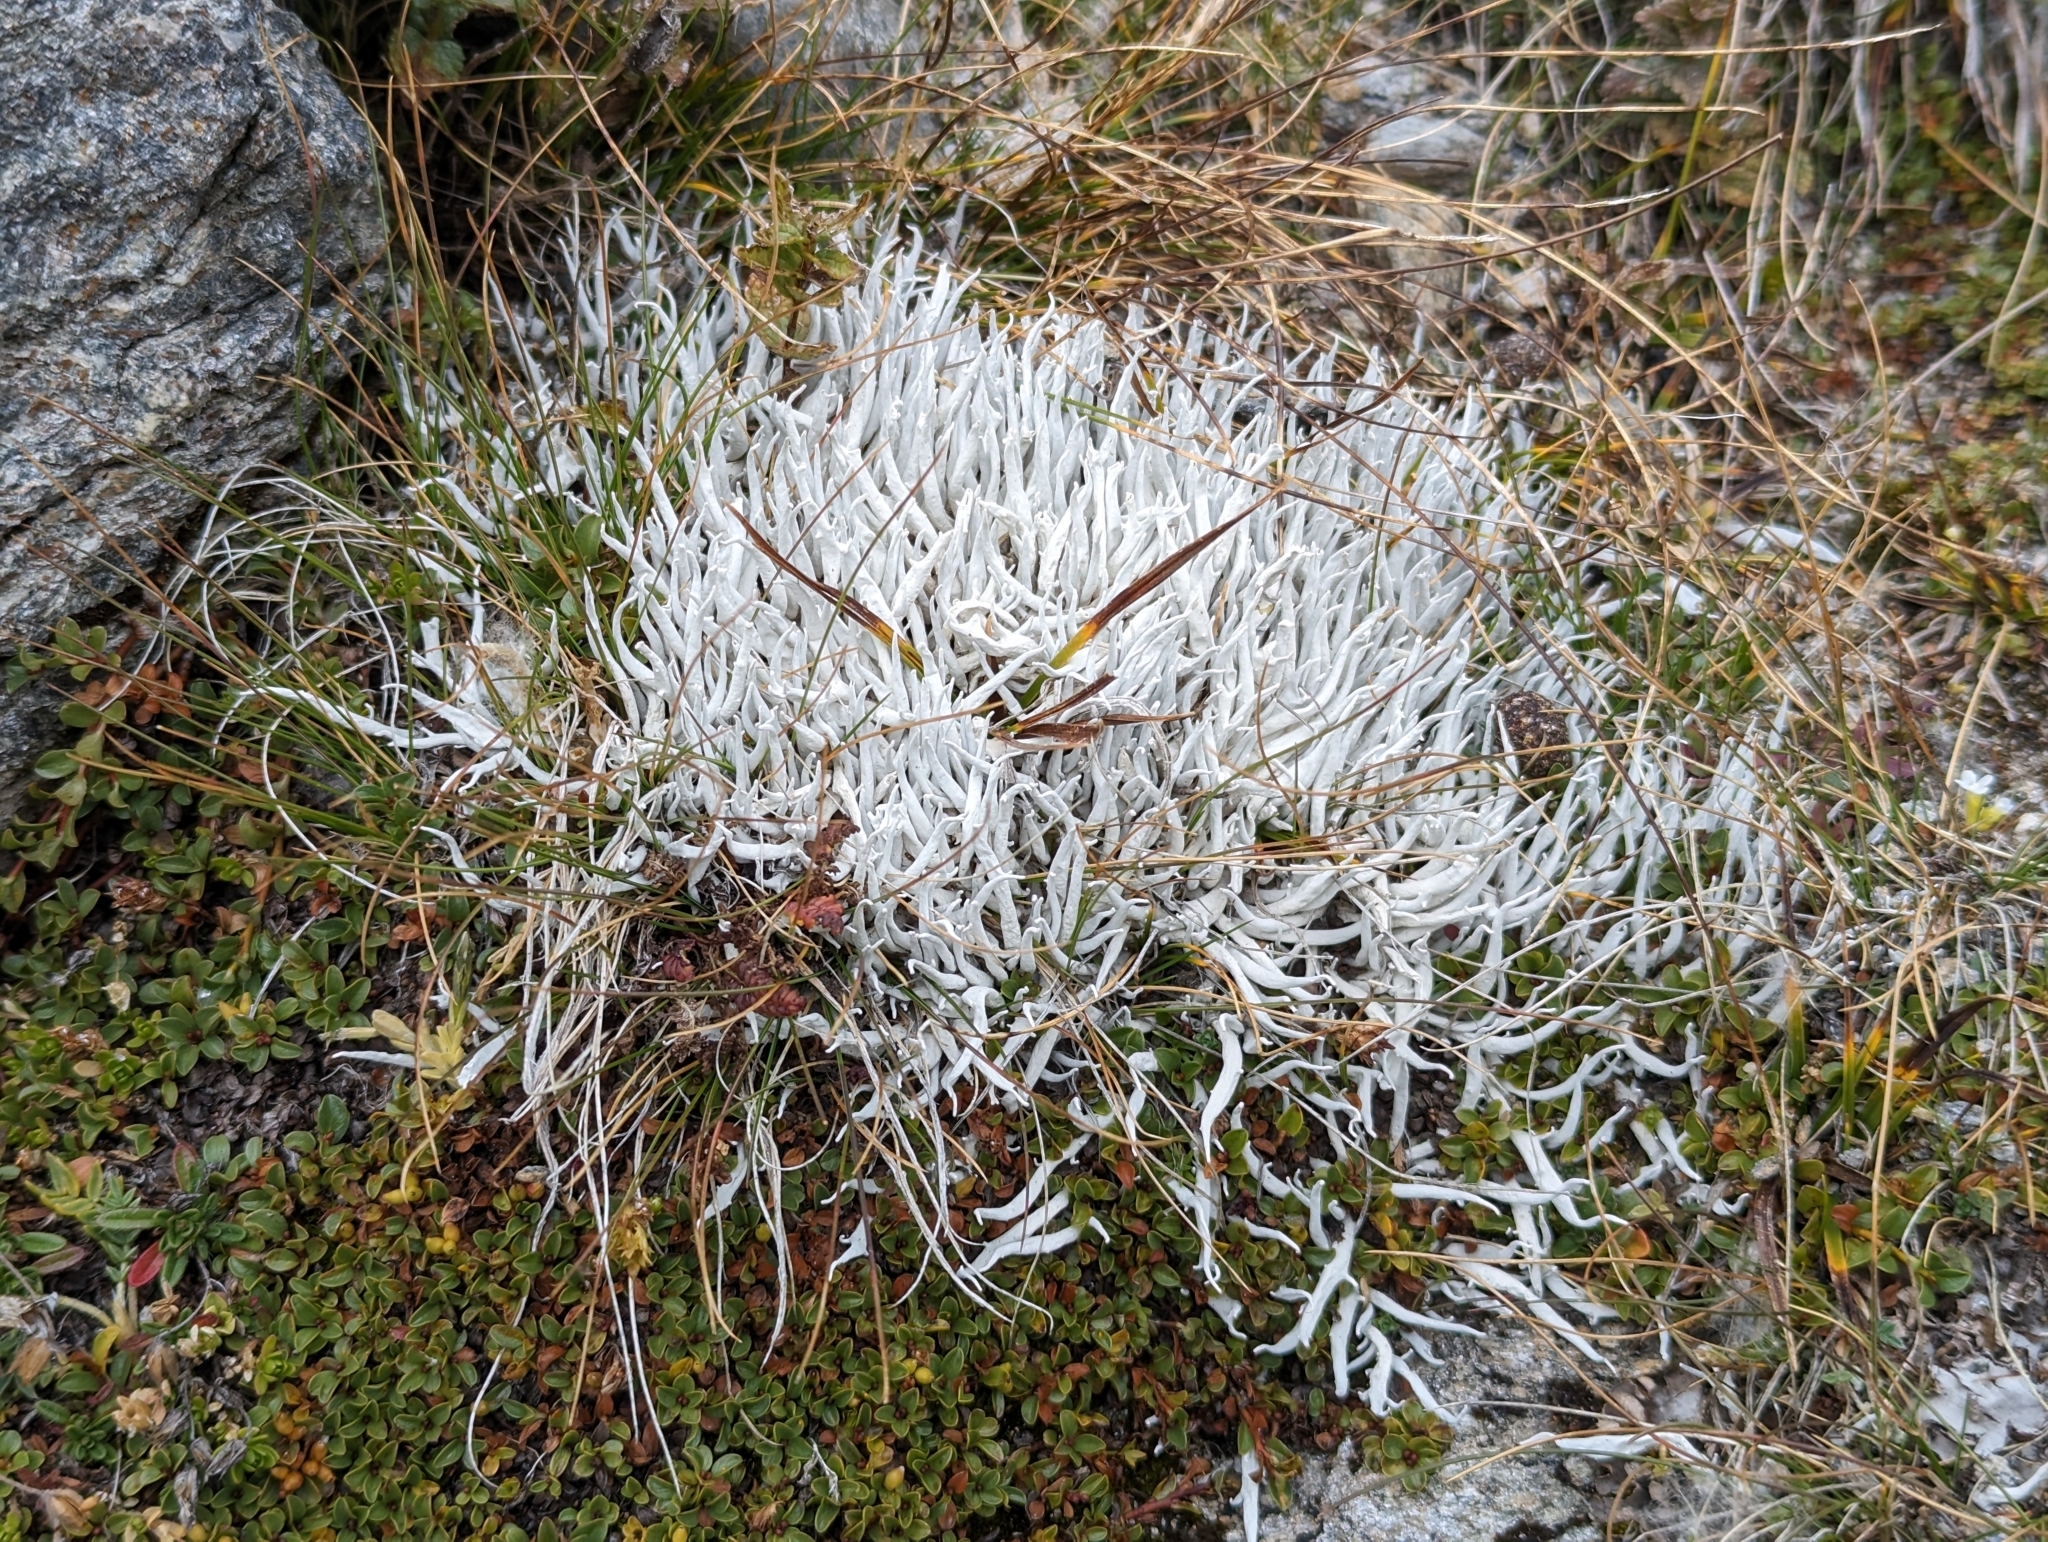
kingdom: Fungi
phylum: Ascomycota
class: Lecanoromycetes
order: Pertusariales
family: Icmadophilaceae
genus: Thamnolia
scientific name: Thamnolia vermicularis
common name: Whiteworm lichen
